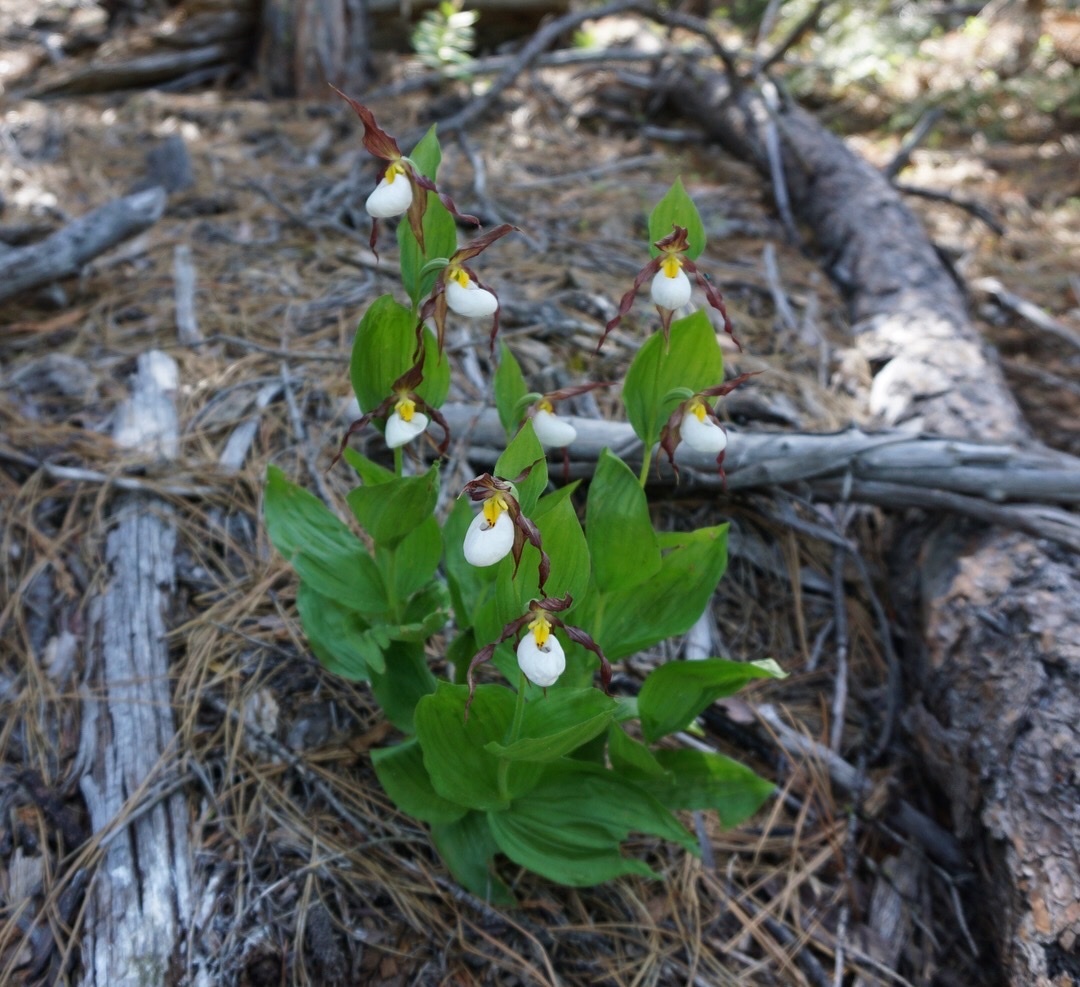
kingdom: Plantae
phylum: Tracheophyta
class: Liliopsida
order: Asparagales
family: Orchidaceae
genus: Cypripedium
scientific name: Cypripedium montanum
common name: Mountain lady's-slipper
